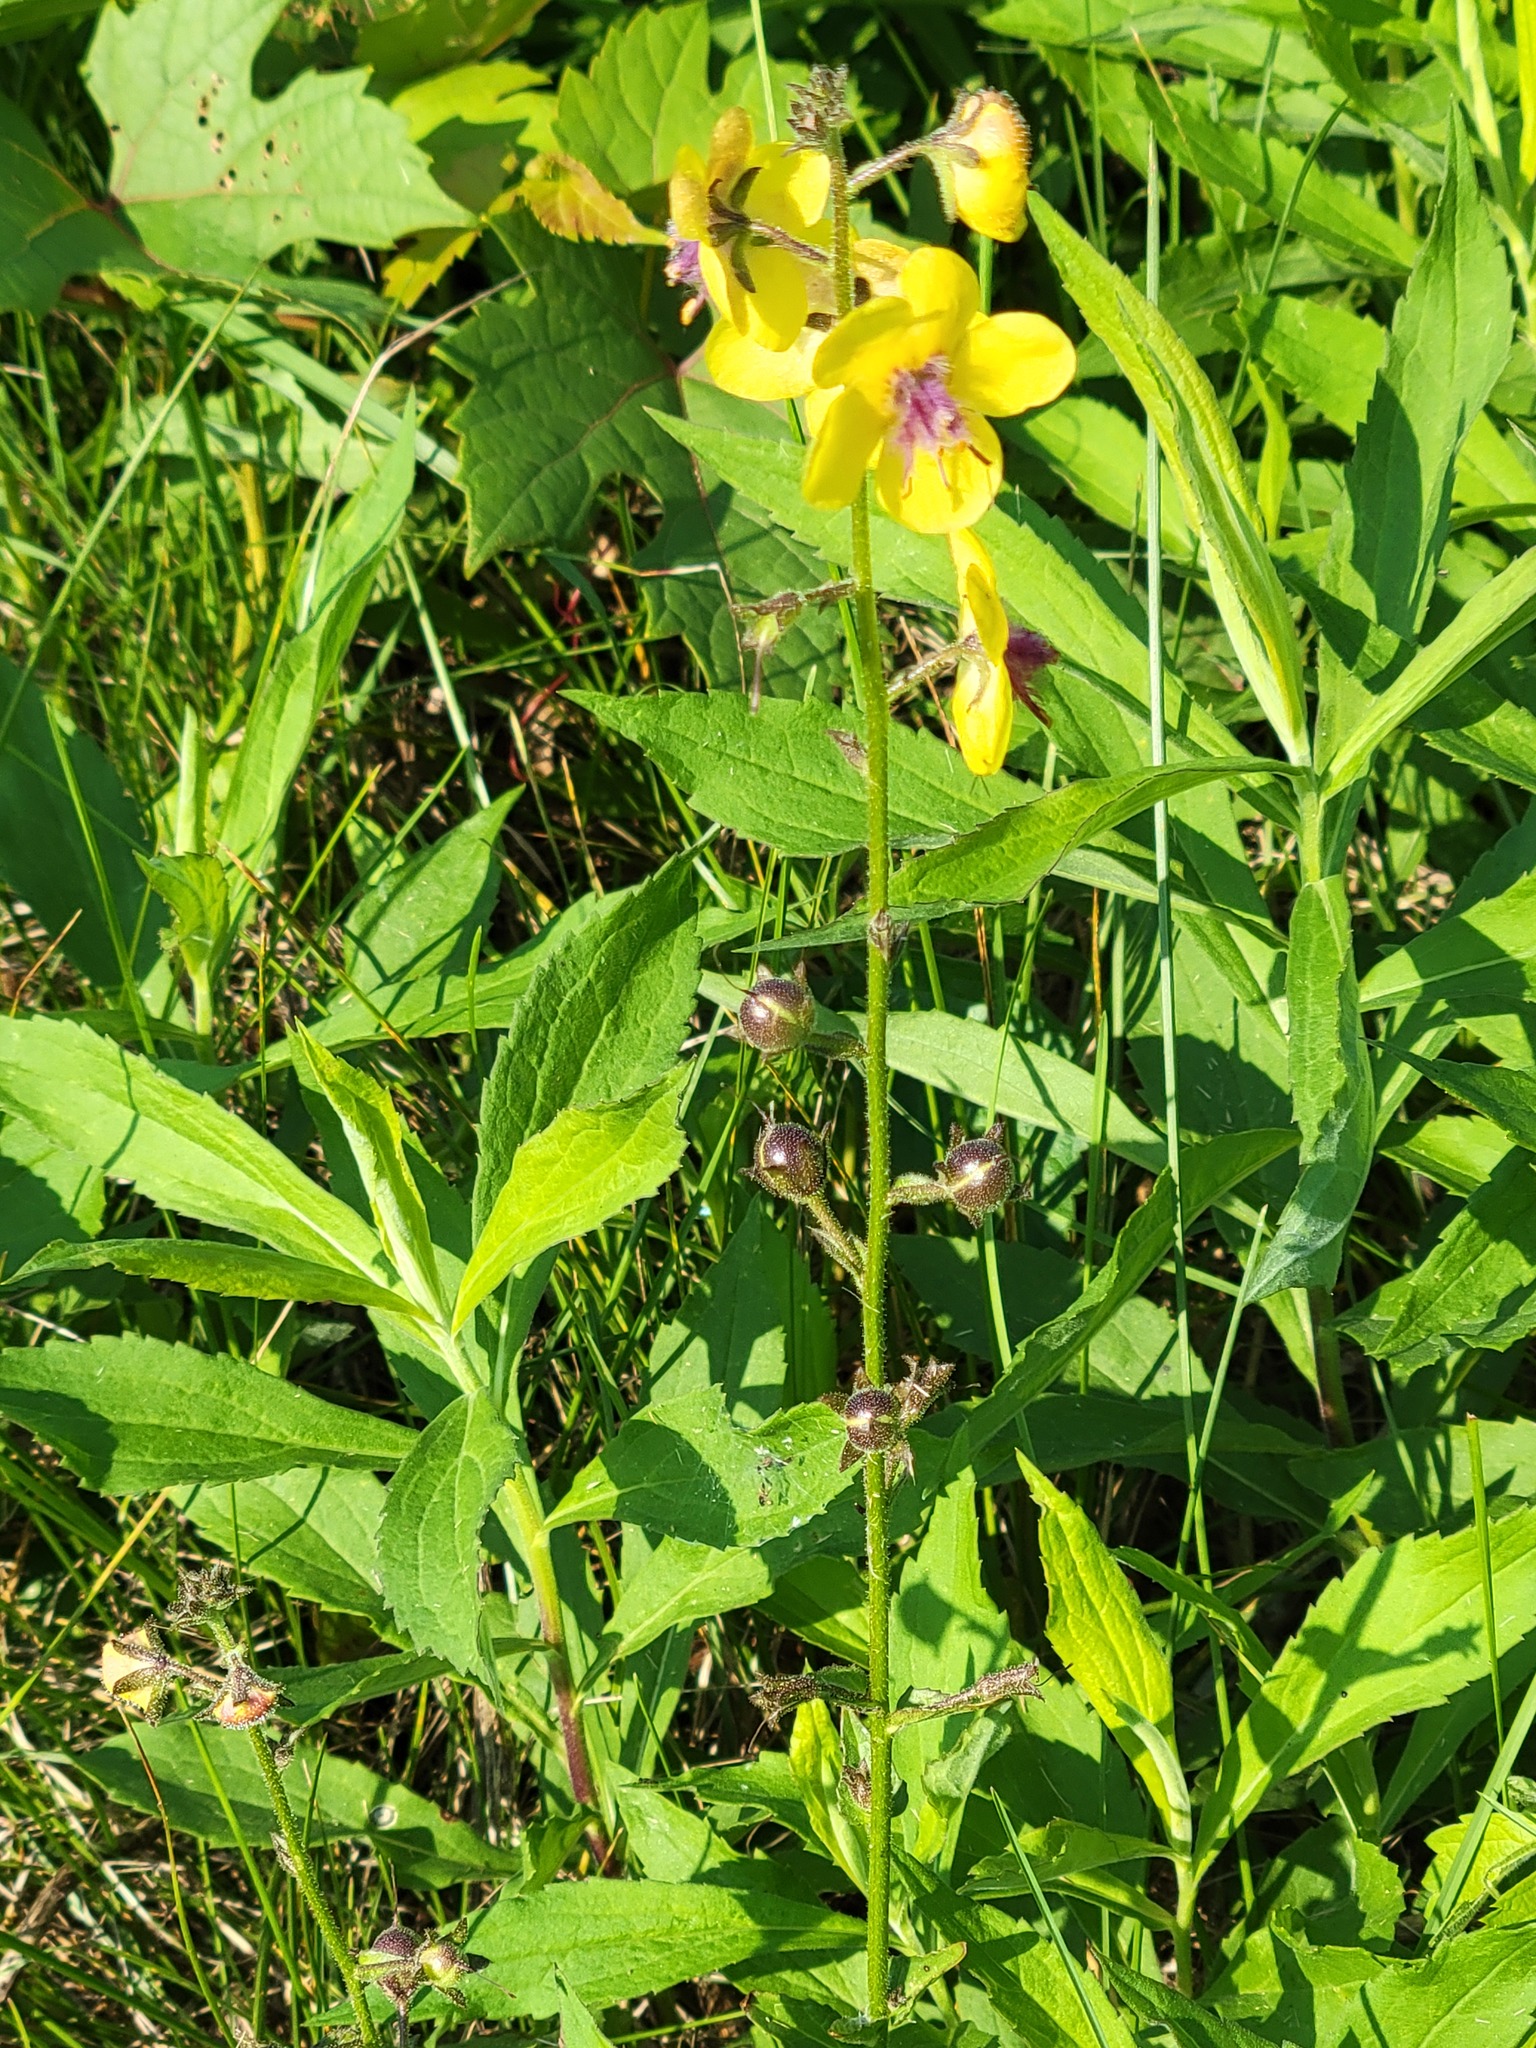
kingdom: Plantae
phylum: Tracheophyta
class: Magnoliopsida
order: Lamiales
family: Scrophulariaceae
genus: Verbascum
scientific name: Verbascum blattaria
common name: Moth mullein
